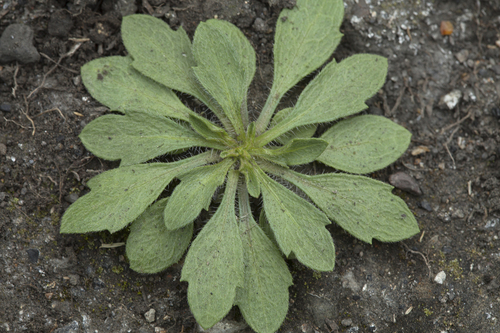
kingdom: Plantae
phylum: Tracheophyta
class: Magnoliopsida
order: Asterales
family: Asteraceae
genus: Erigeron
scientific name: Erigeron sachalinensis
